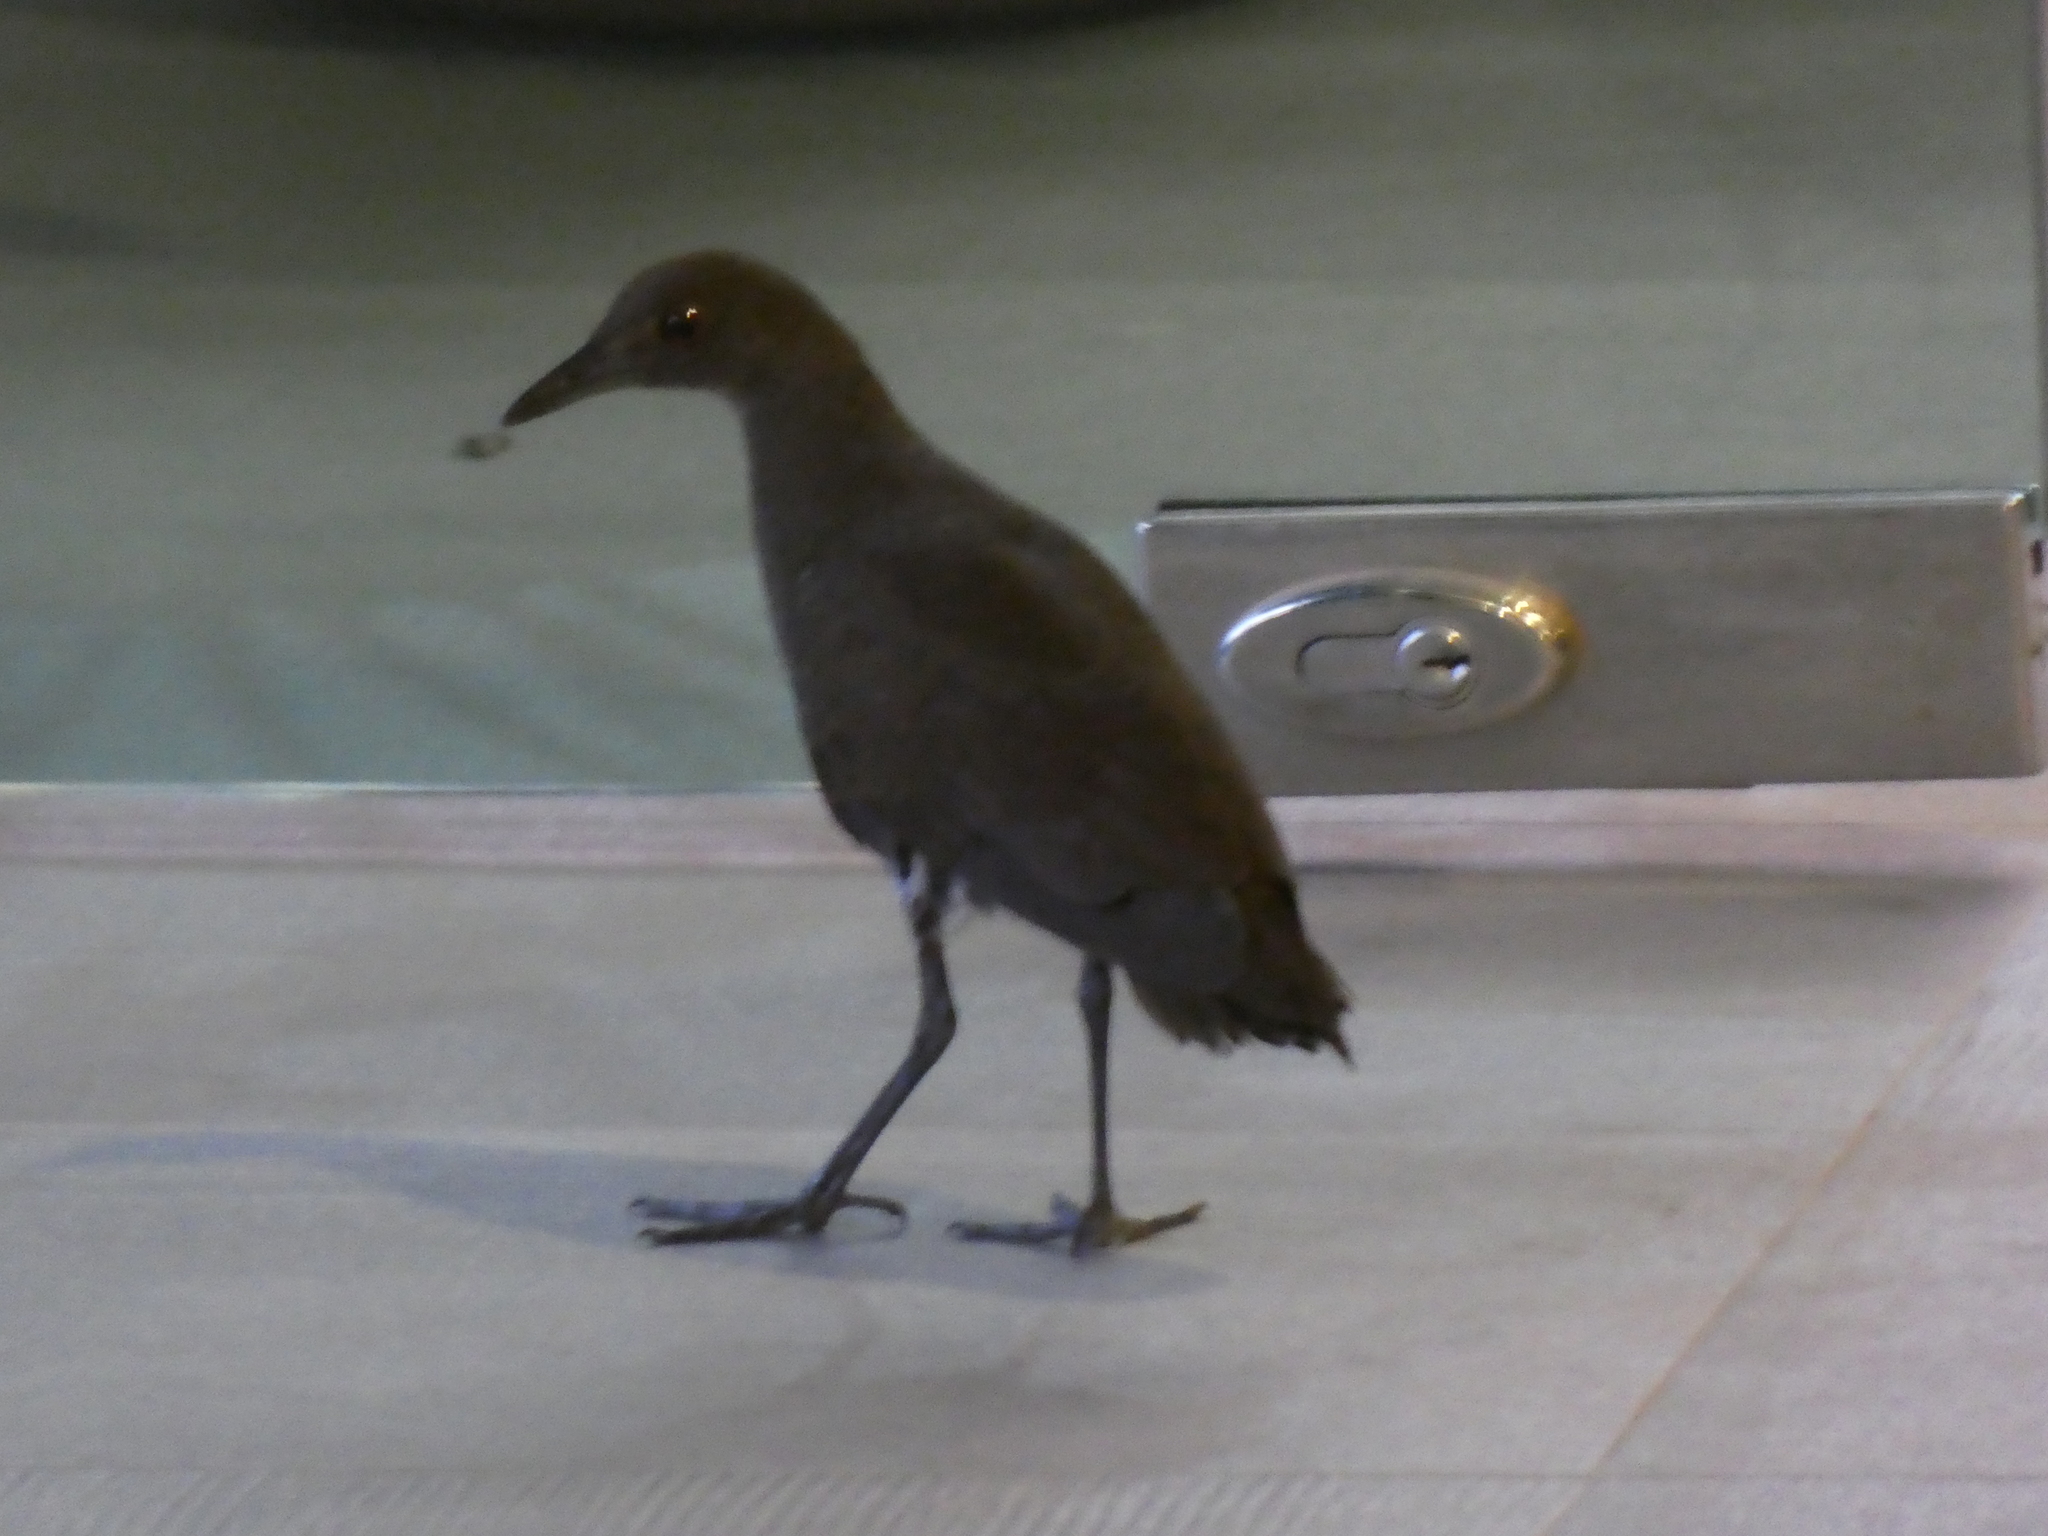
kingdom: Animalia
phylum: Chordata
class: Aves
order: Gruiformes
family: Rallidae
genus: Rallina
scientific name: Rallina eurizonoides
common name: Slaty-legged crake
